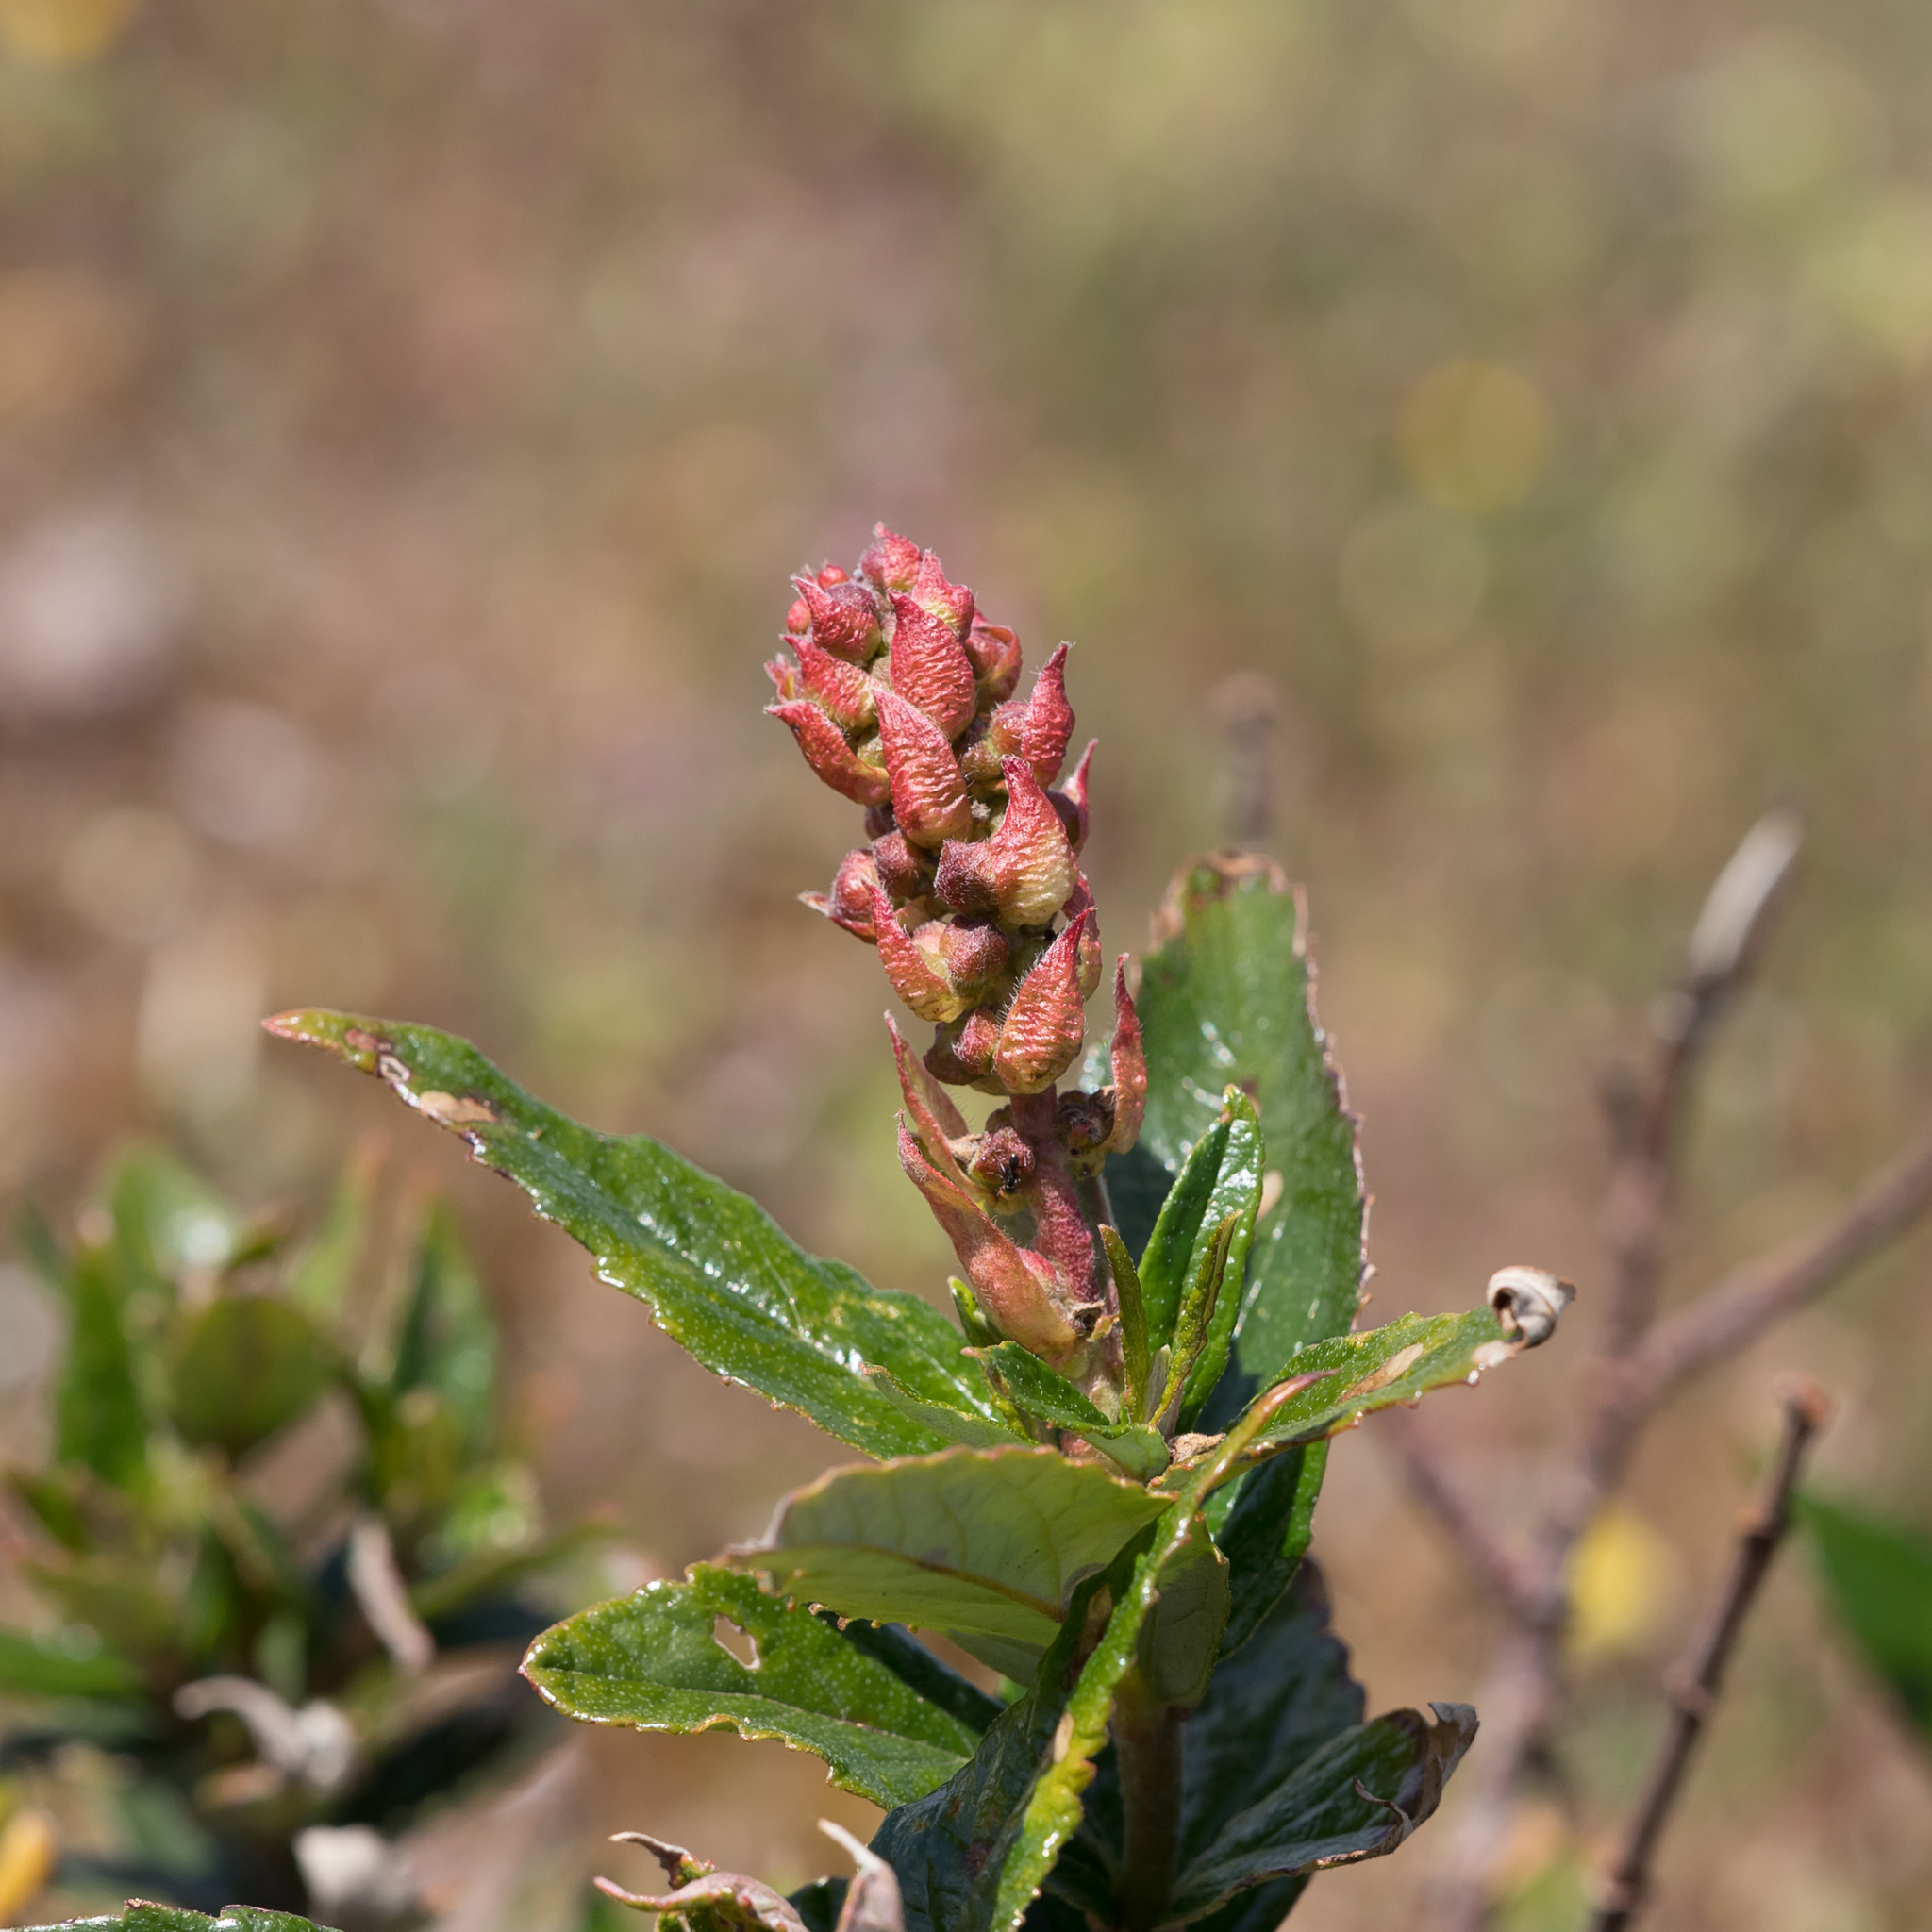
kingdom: Plantae
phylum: Tracheophyta
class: Magnoliopsida
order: Malpighiales
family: Euphorbiaceae
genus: Adriana
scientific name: Adriana quadripartita
